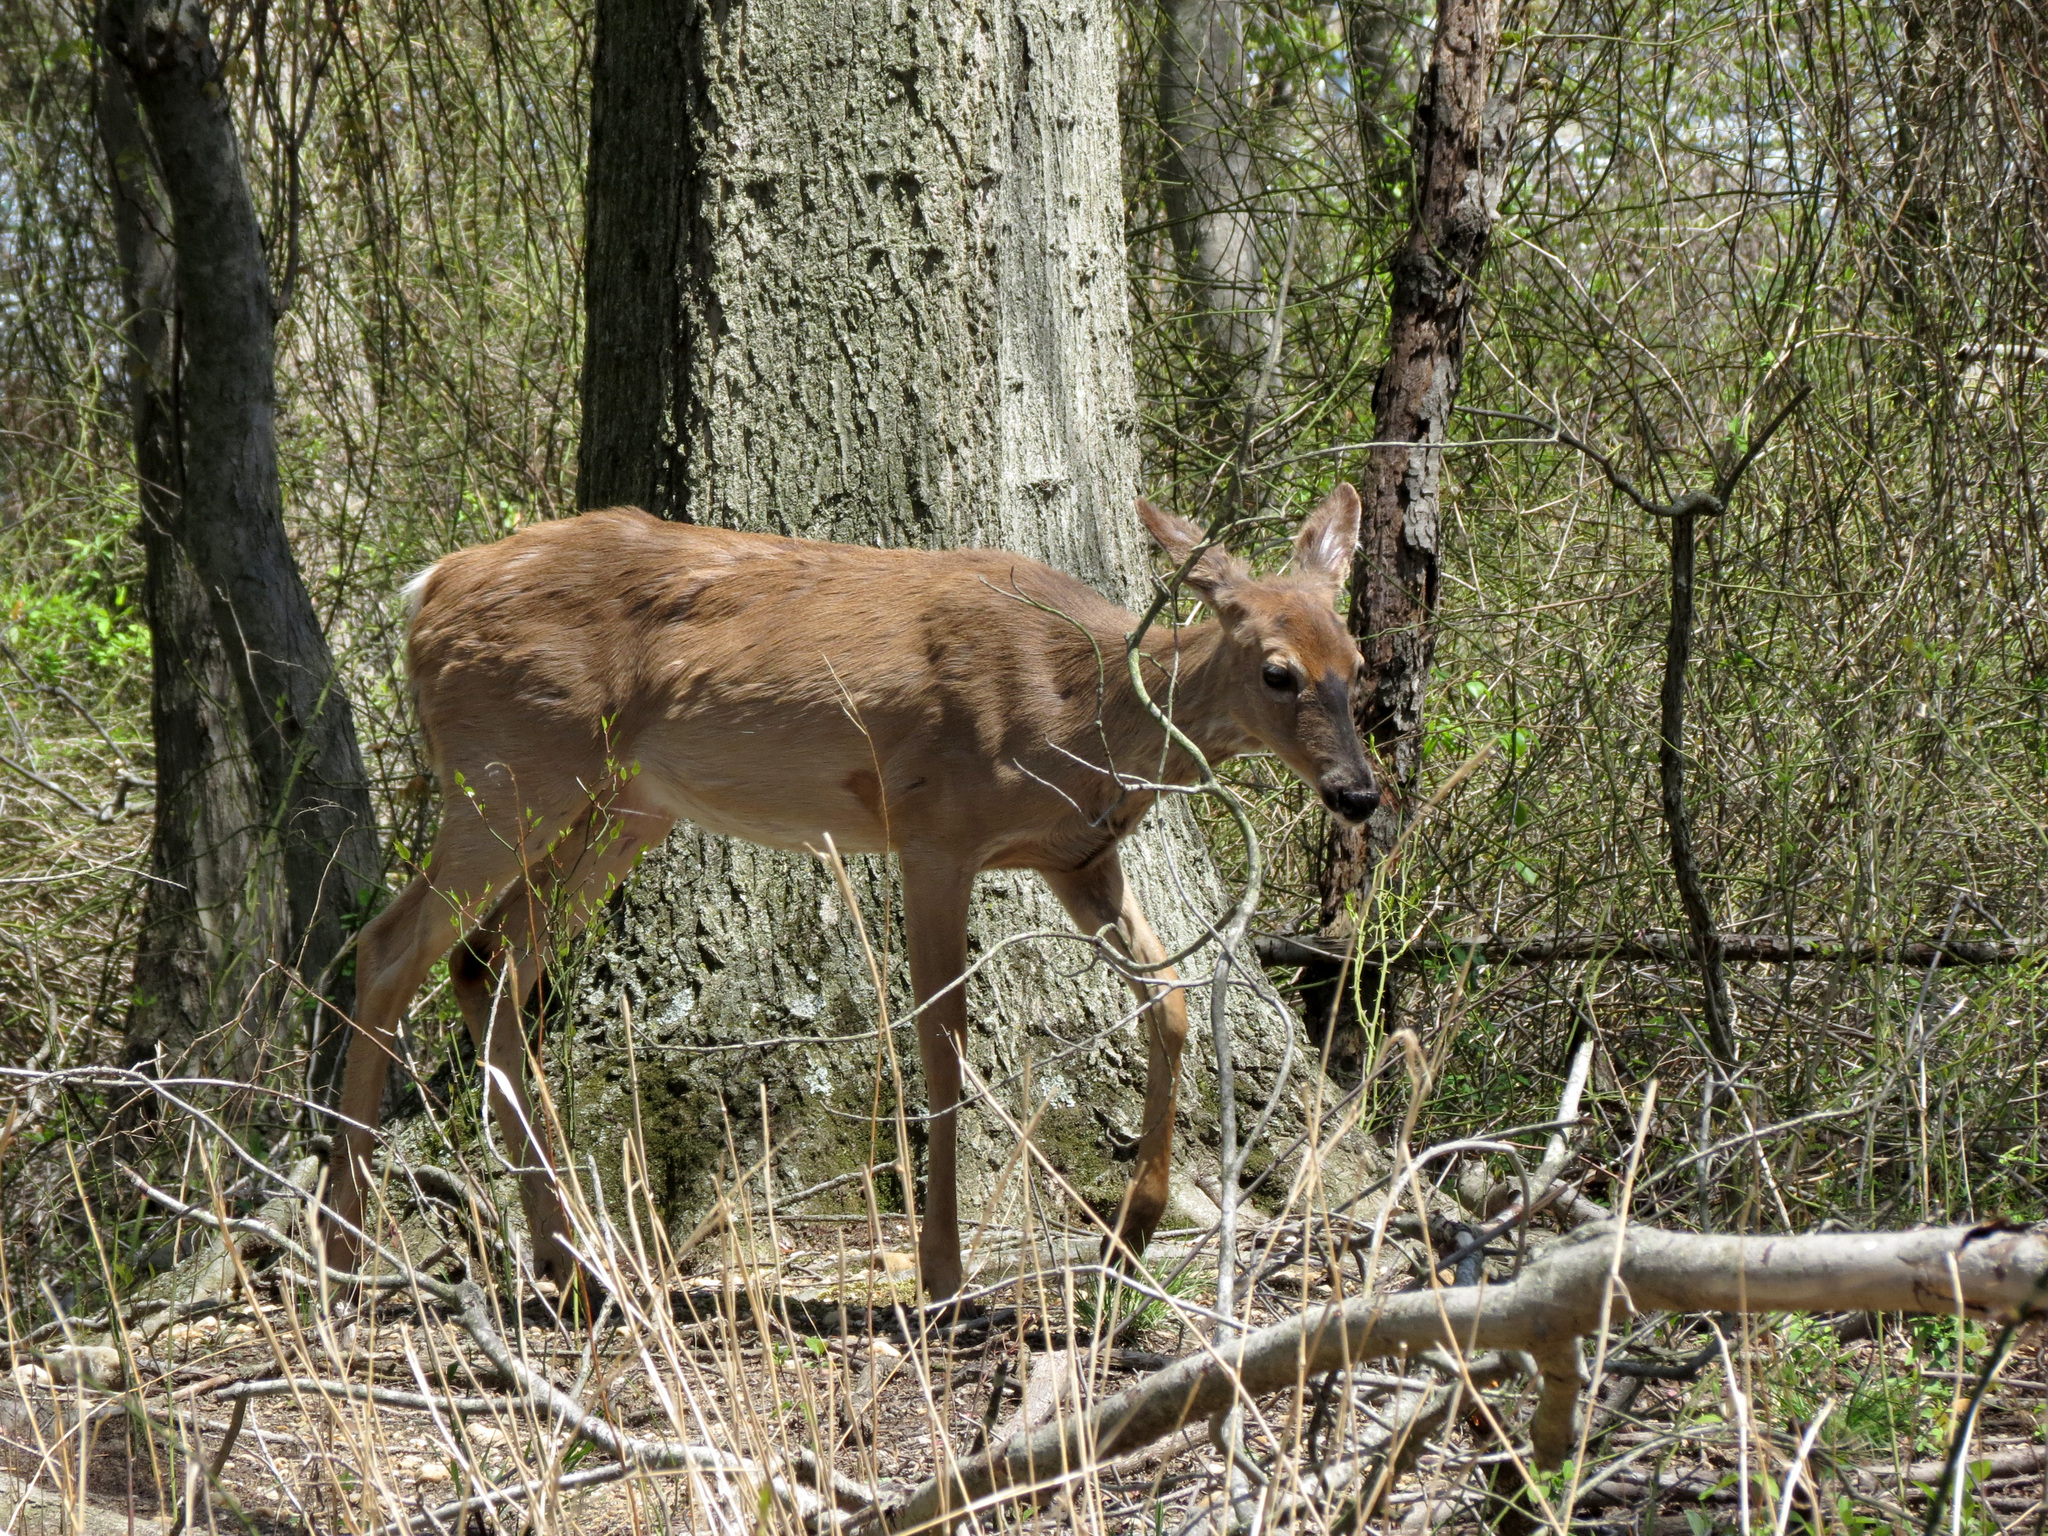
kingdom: Animalia
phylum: Chordata
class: Mammalia
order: Artiodactyla
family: Cervidae
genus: Odocoileus
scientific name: Odocoileus virginianus
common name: White-tailed deer
